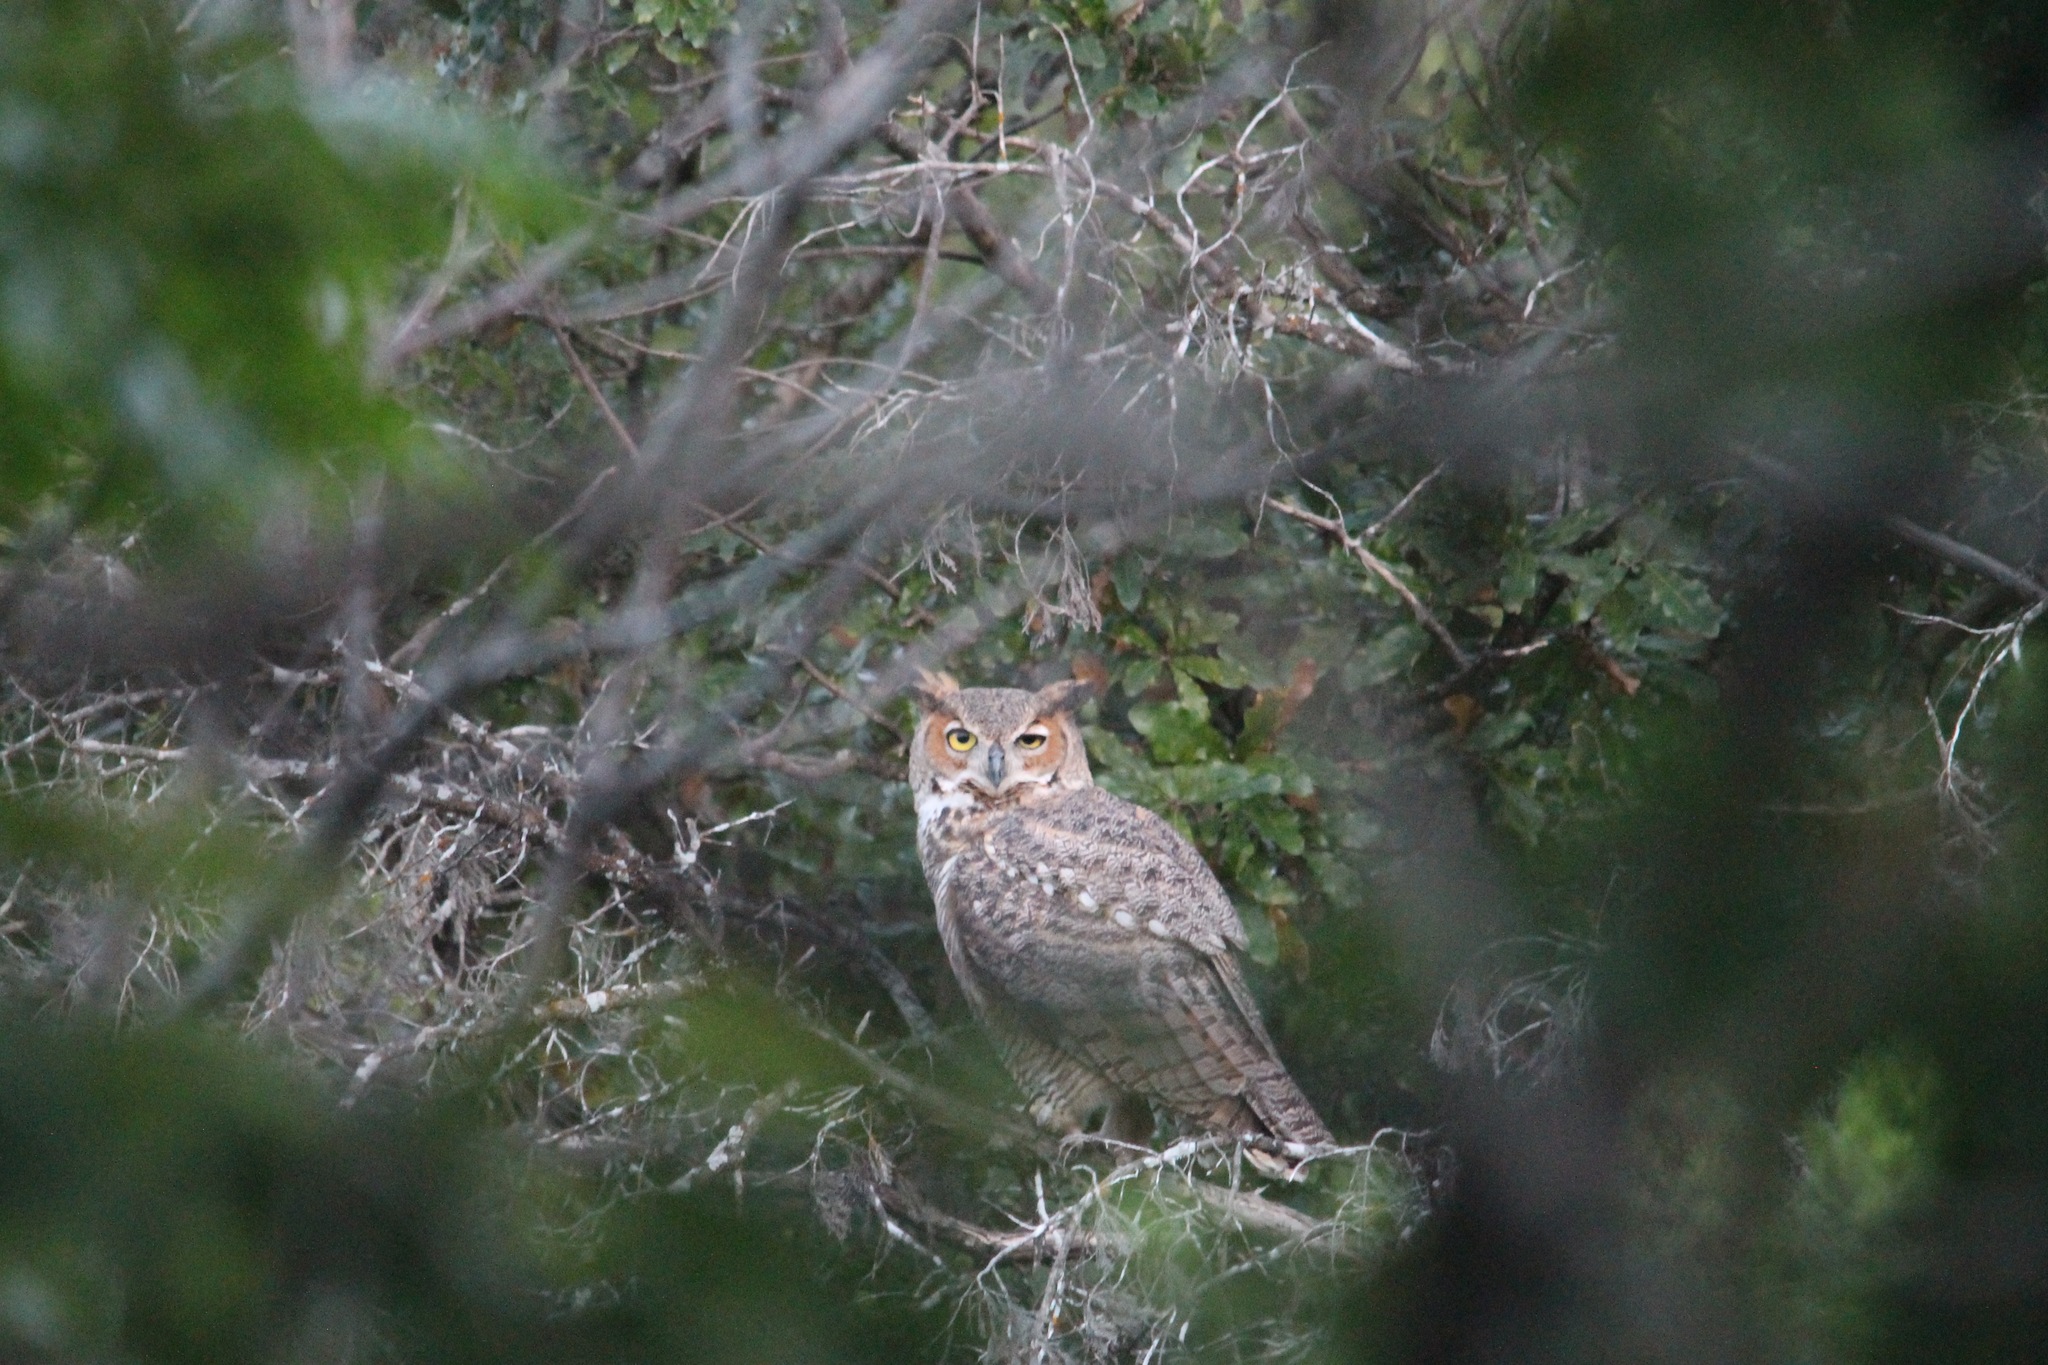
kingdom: Animalia
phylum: Chordata
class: Aves
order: Strigiformes
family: Strigidae
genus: Bubo
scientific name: Bubo virginianus
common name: Great horned owl
